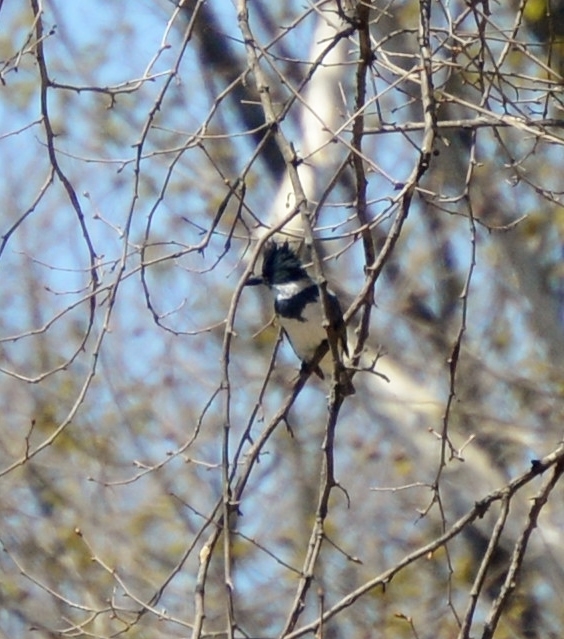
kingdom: Animalia
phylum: Chordata
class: Aves
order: Coraciiformes
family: Alcedinidae
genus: Megaceryle
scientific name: Megaceryle alcyon
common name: Belted kingfisher
